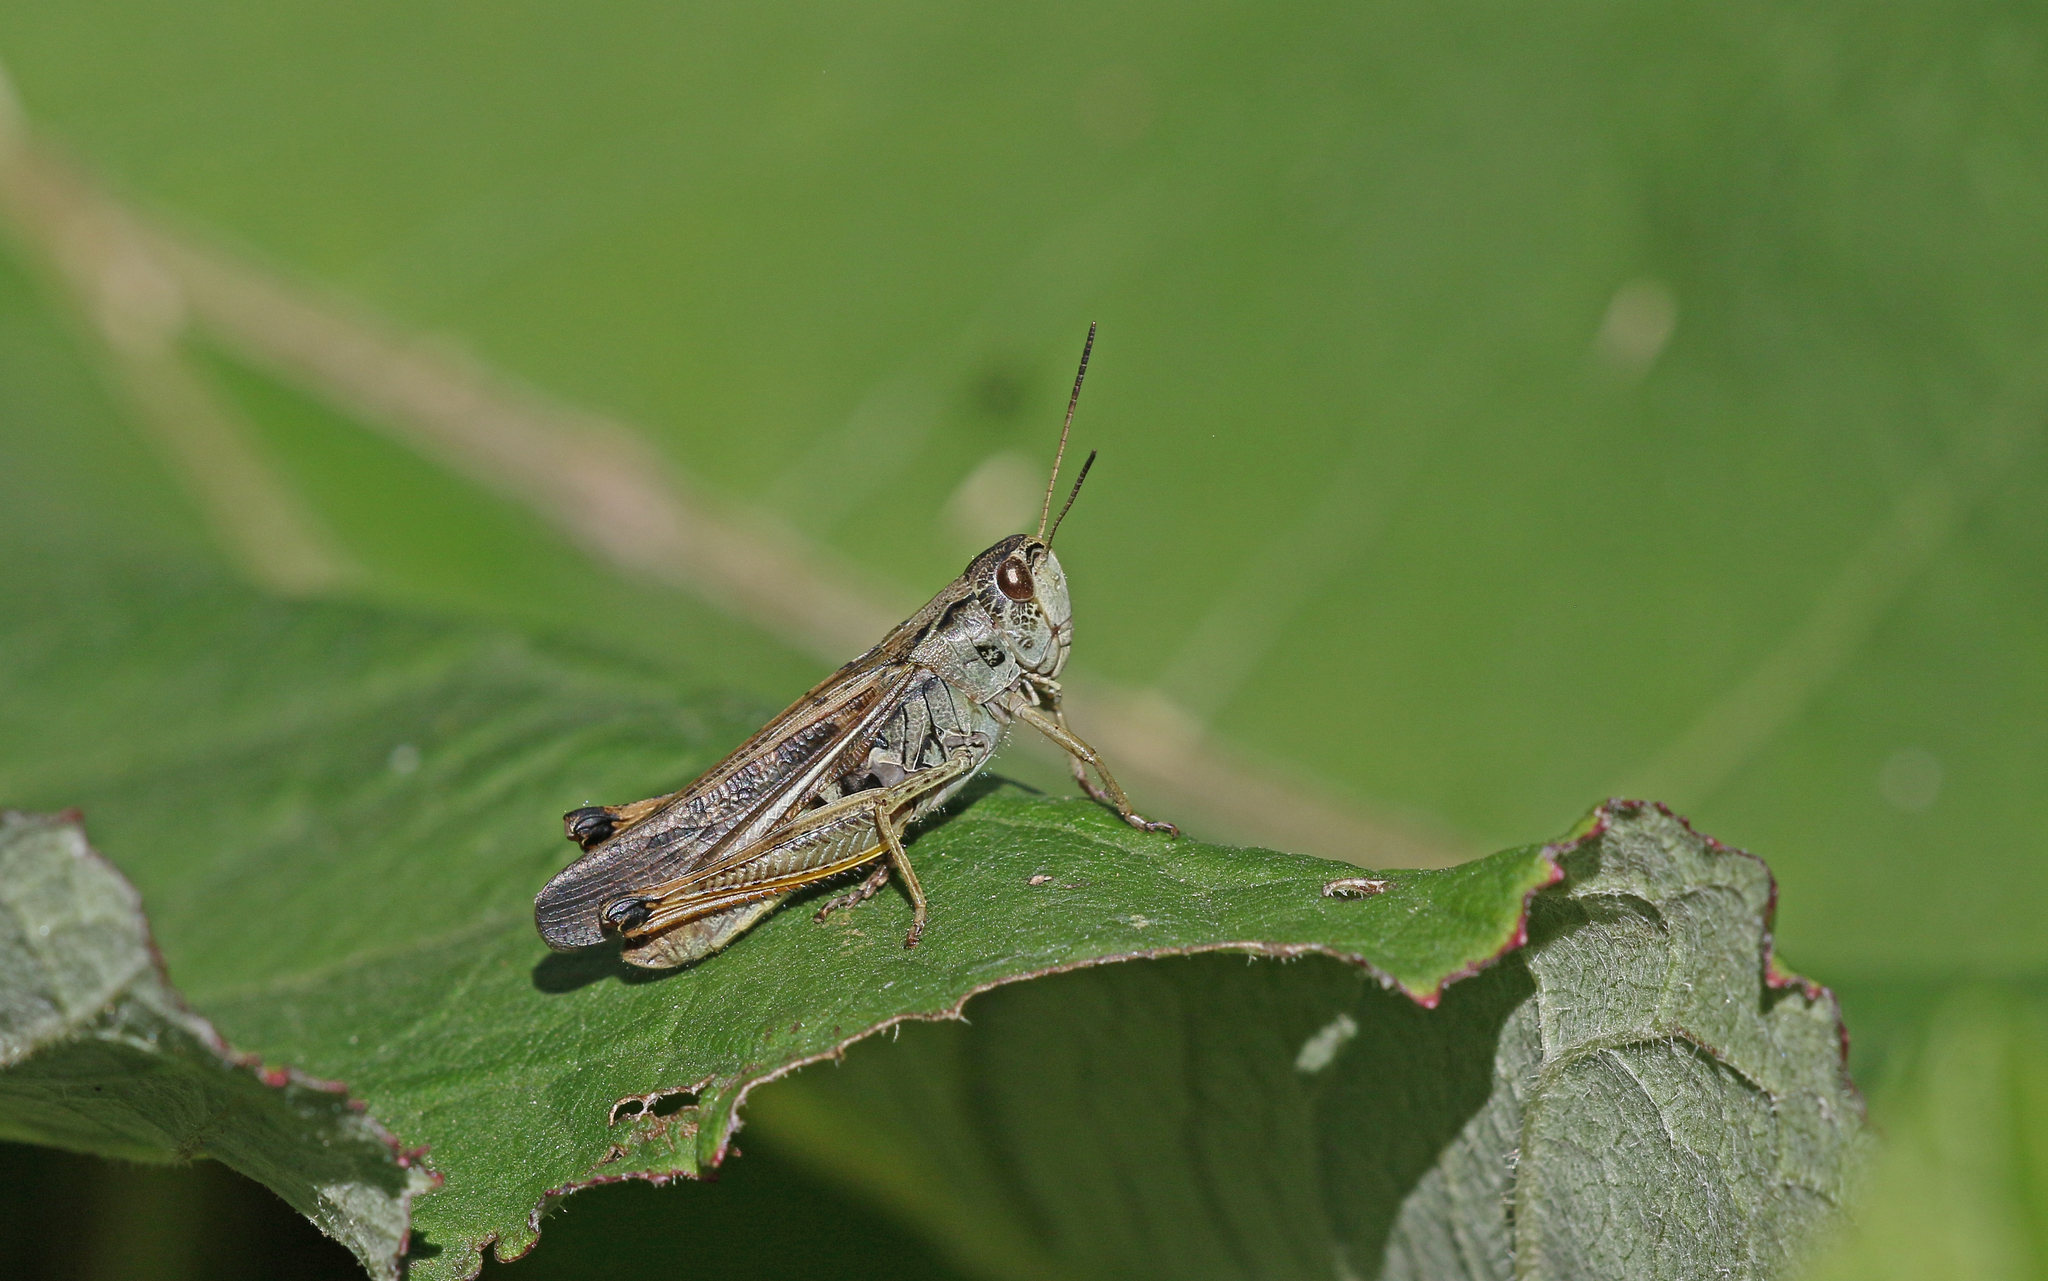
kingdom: Animalia
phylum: Arthropoda
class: Insecta
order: Orthoptera
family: Acrididae
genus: Stauroderus
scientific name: Stauroderus scalaris
